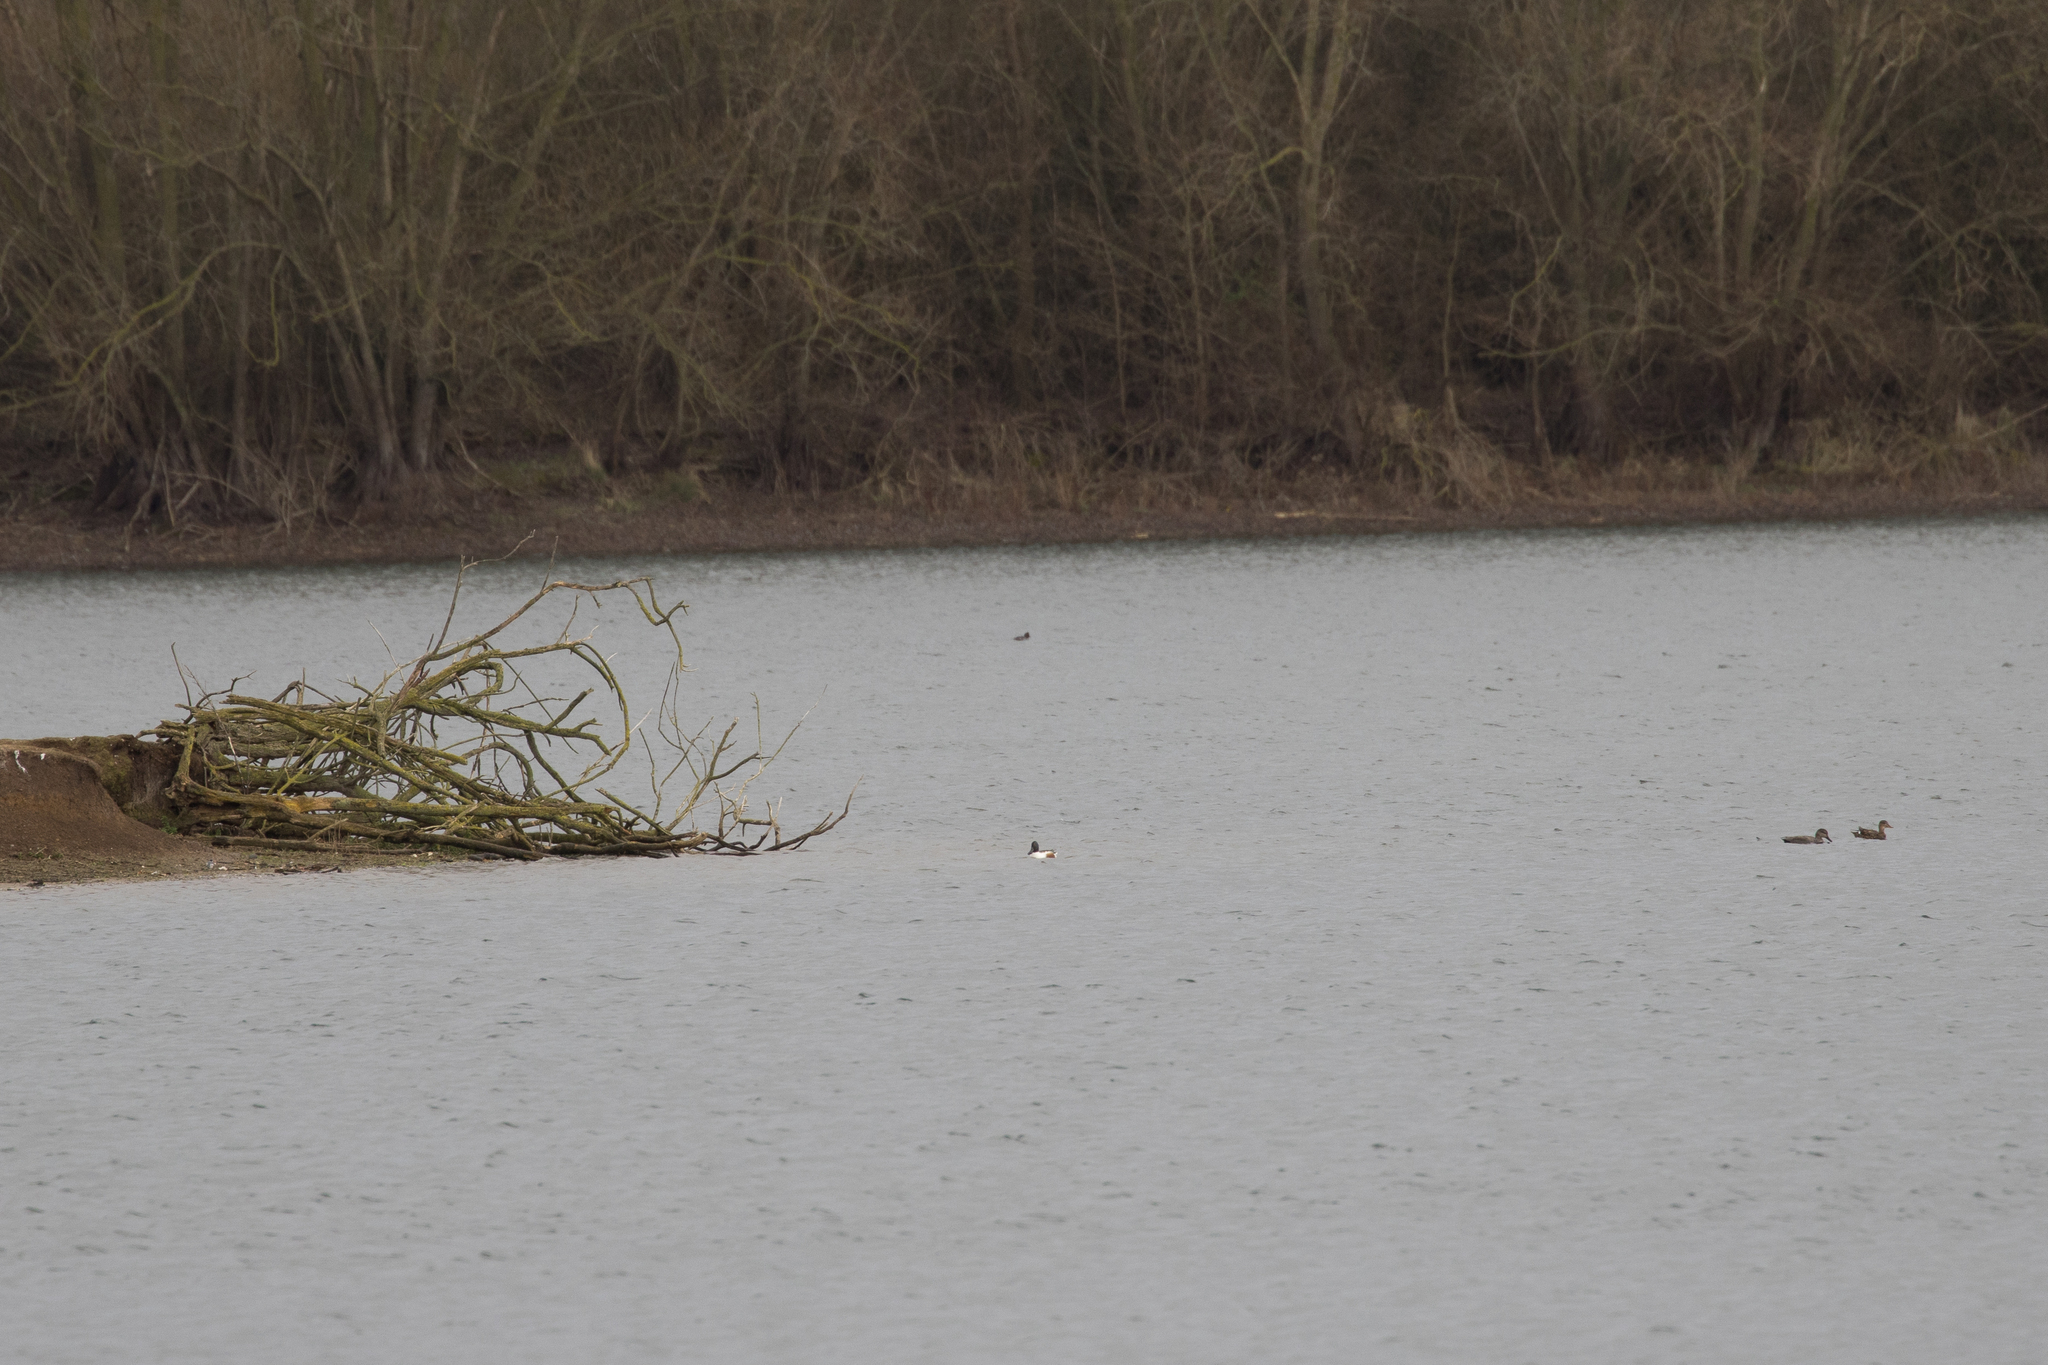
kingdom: Animalia
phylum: Chordata
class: Aves
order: Anseriformes
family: Anatidae
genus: Spatula
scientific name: Spatula clypeata
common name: Northern shoveler
